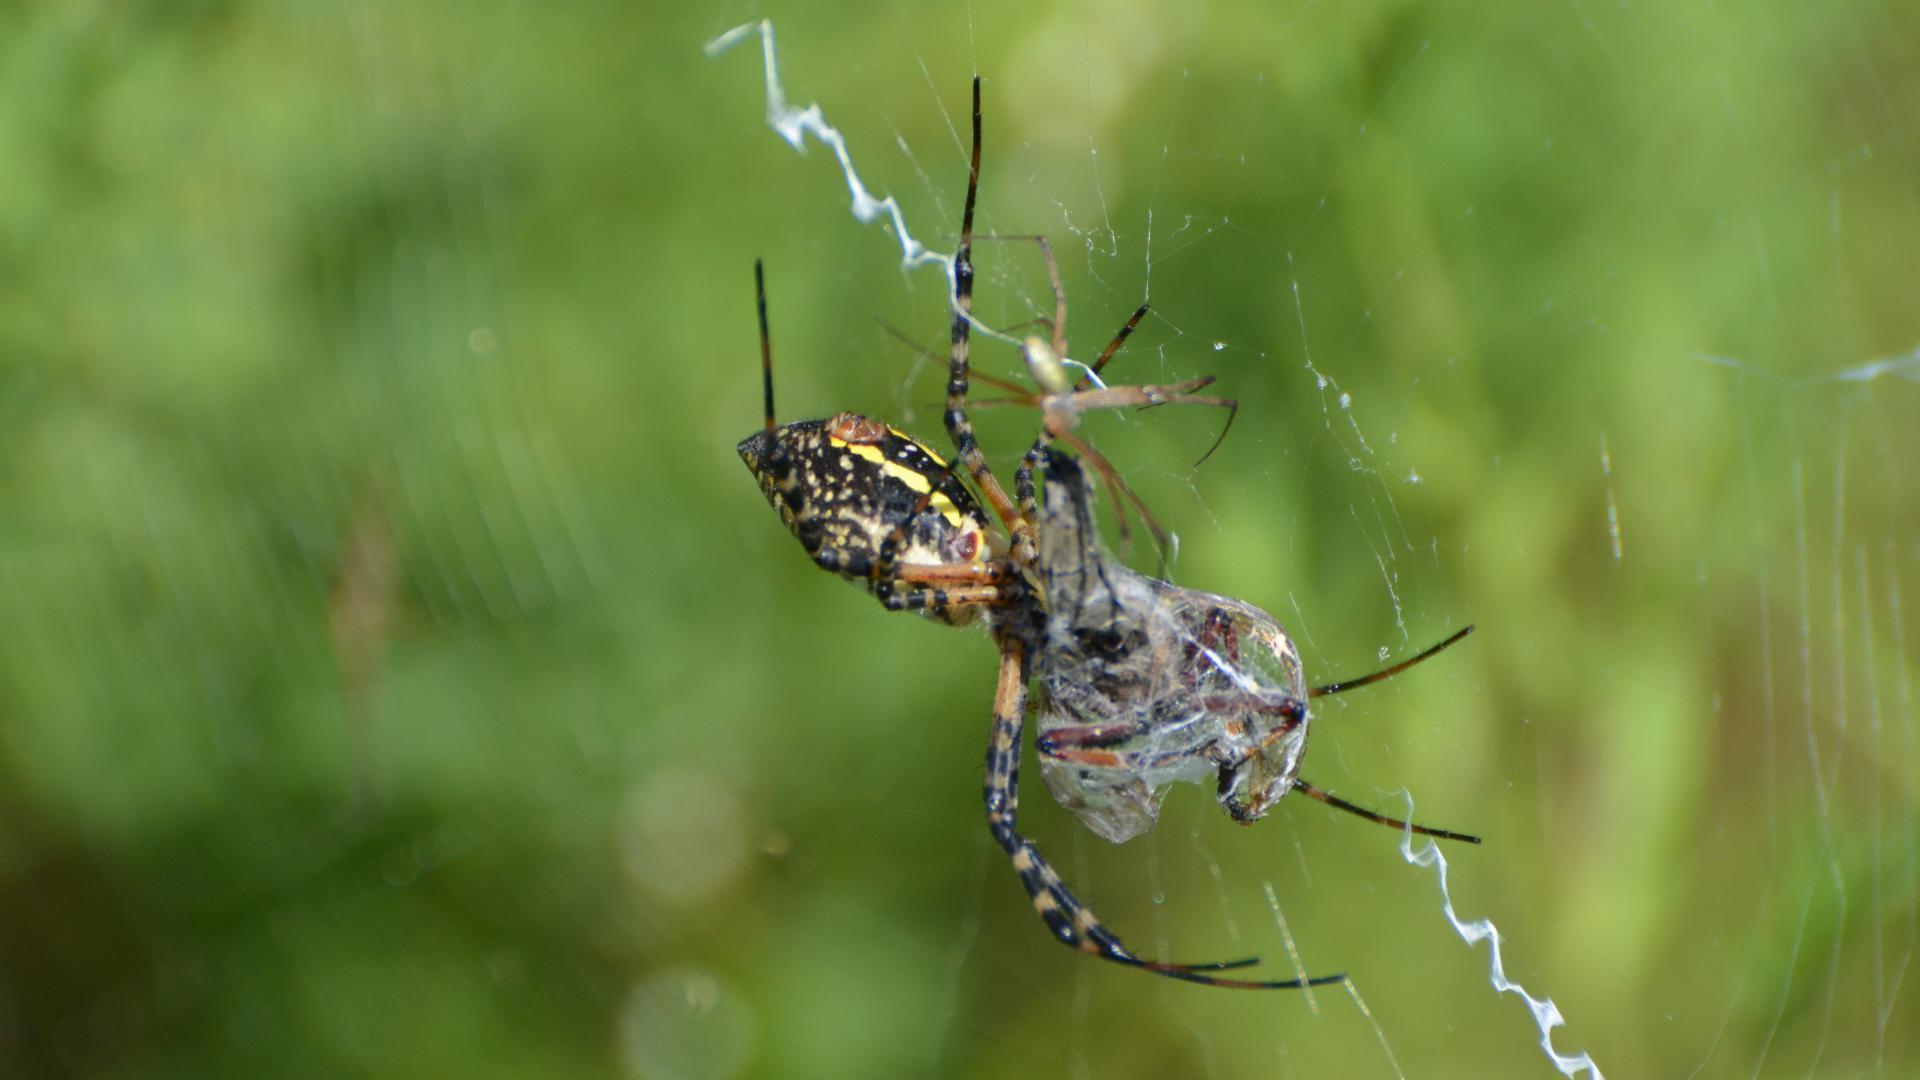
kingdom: Animalia
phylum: Arthropoda
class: Arachnida
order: Araneae
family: Araneidae
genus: Argiope
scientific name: Argiope trifasciata
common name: Banded garden spider
